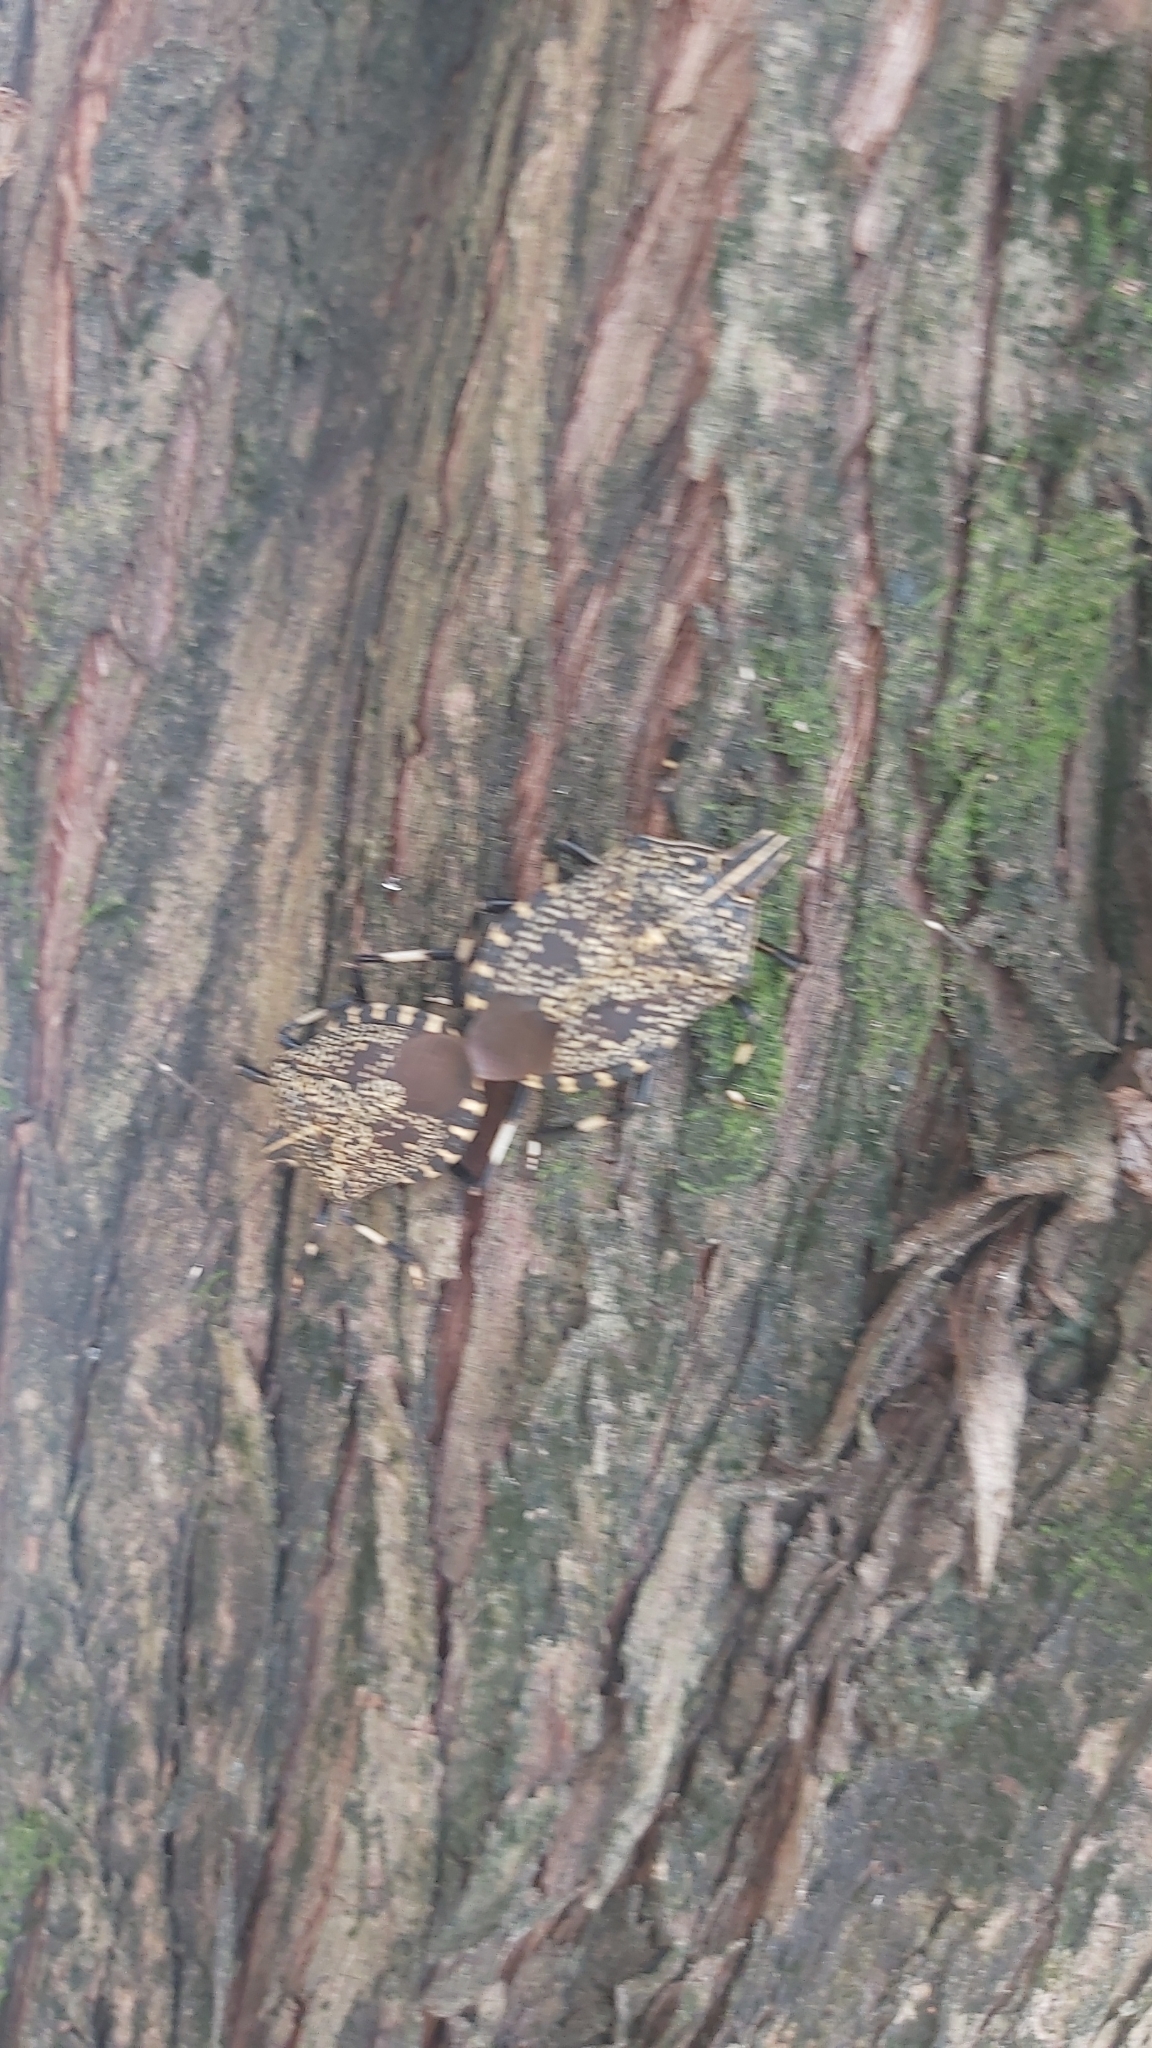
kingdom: Animalia
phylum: Arthropoda
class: Insecta
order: Hemiptera
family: Pentatomidae
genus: Erthesina
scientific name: Erthesina fullo
